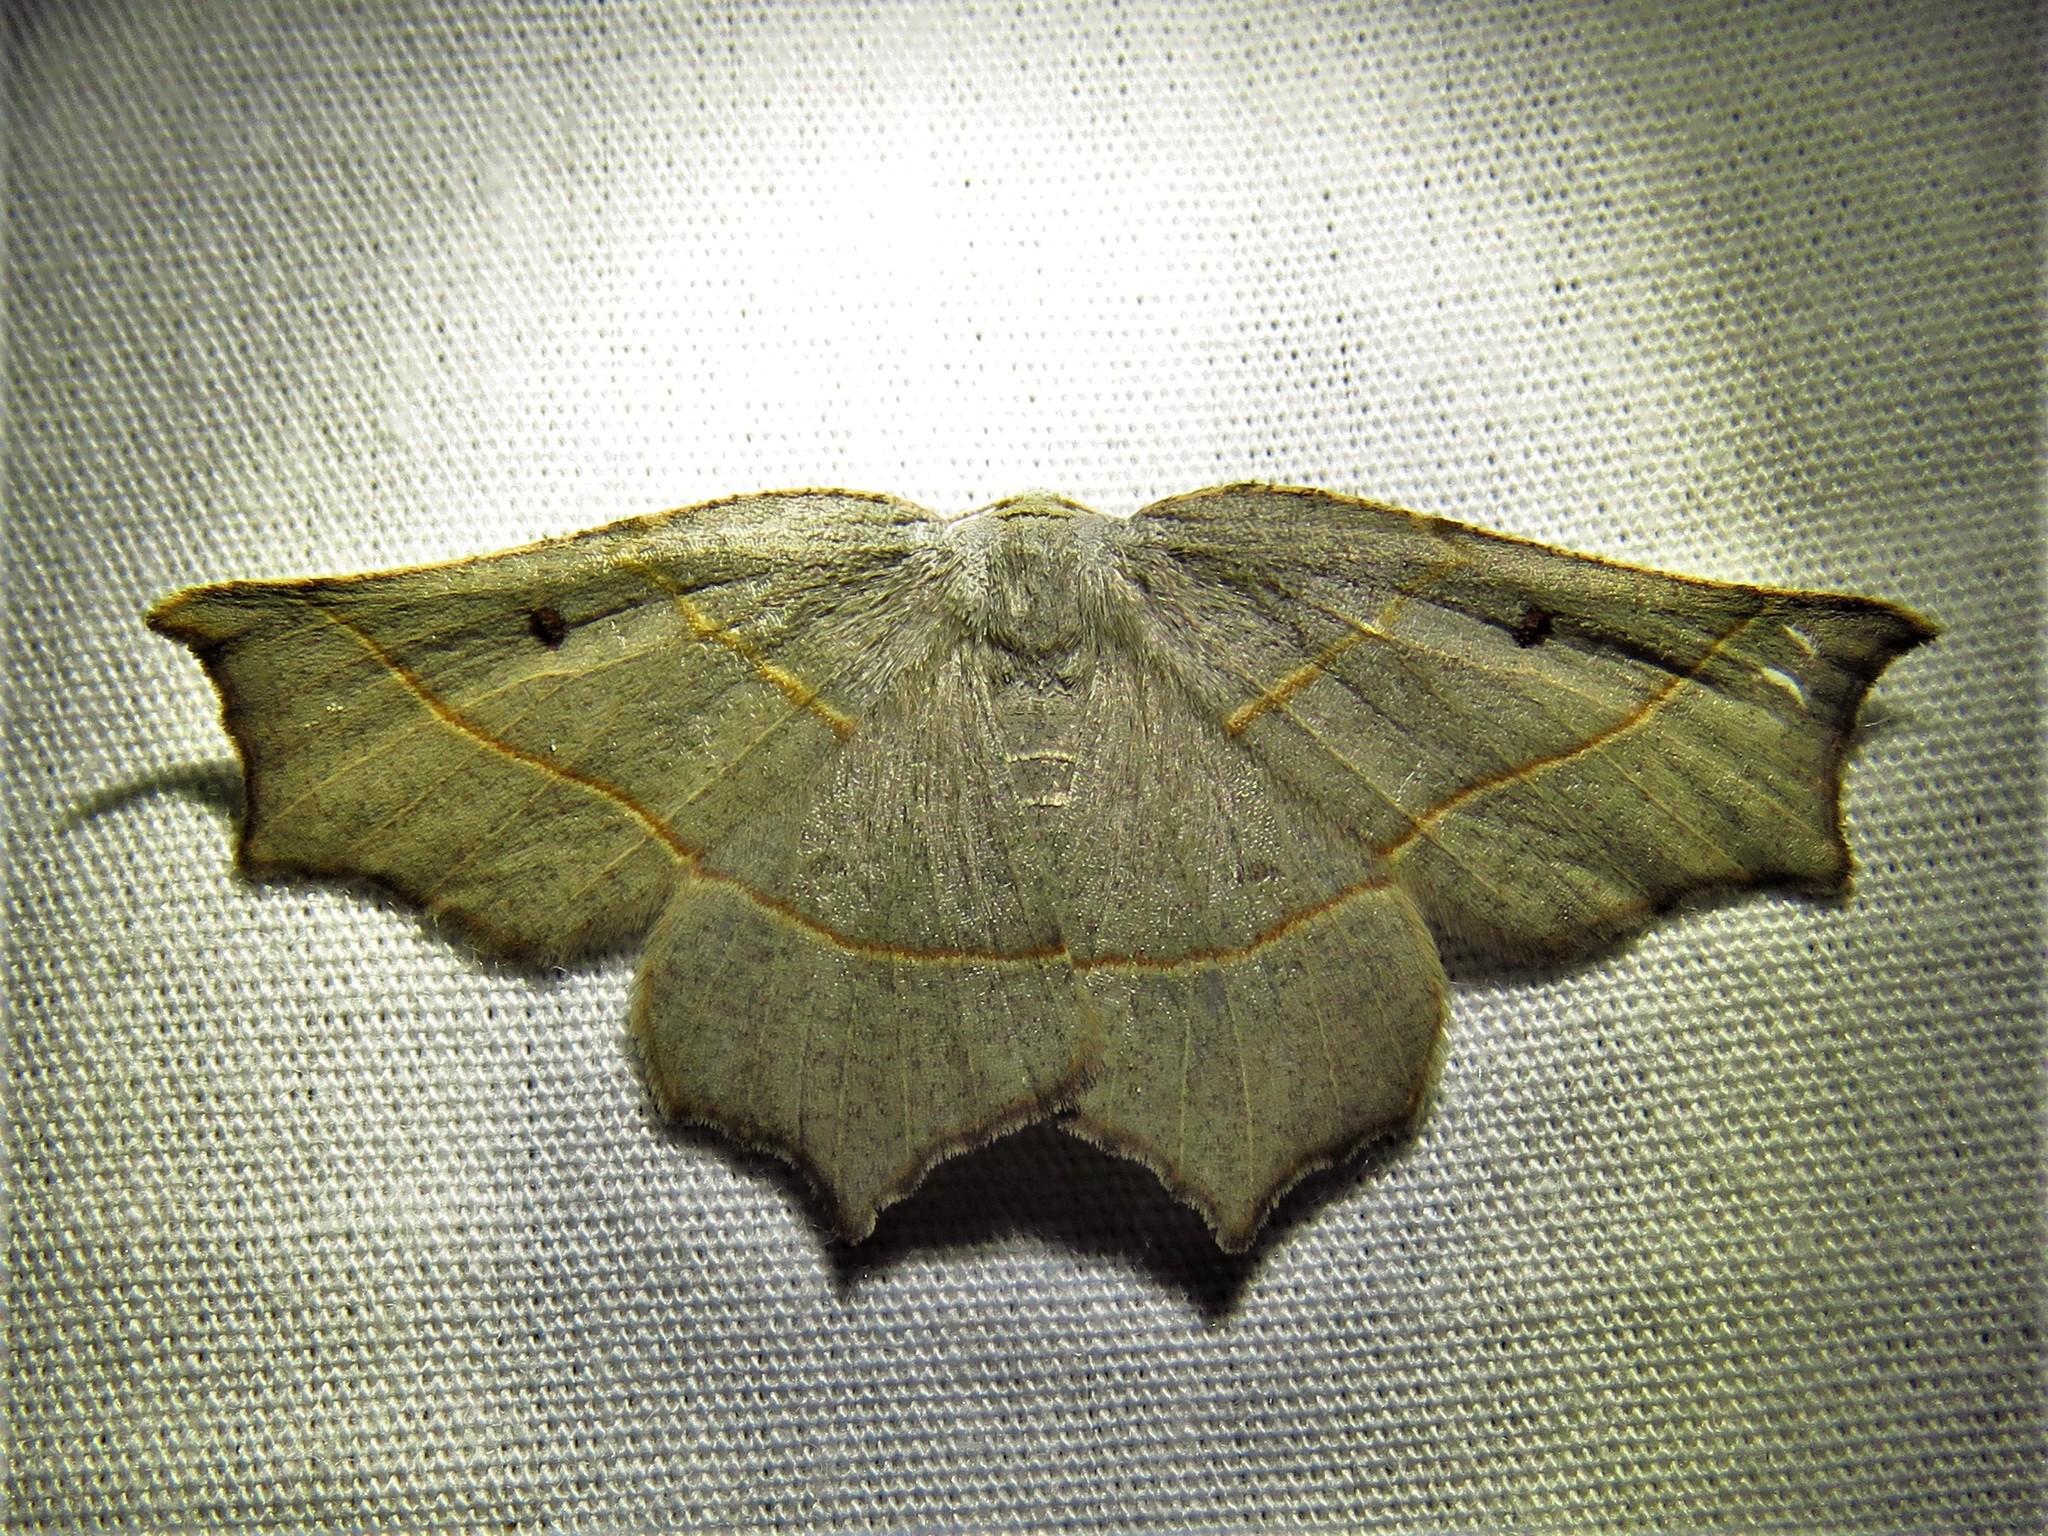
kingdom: Animalia
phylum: Arthropoda
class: Insecta
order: Lepidoptera
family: Geometridae
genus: Metanema
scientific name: Metanema inatomaria
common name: Pale metanema
